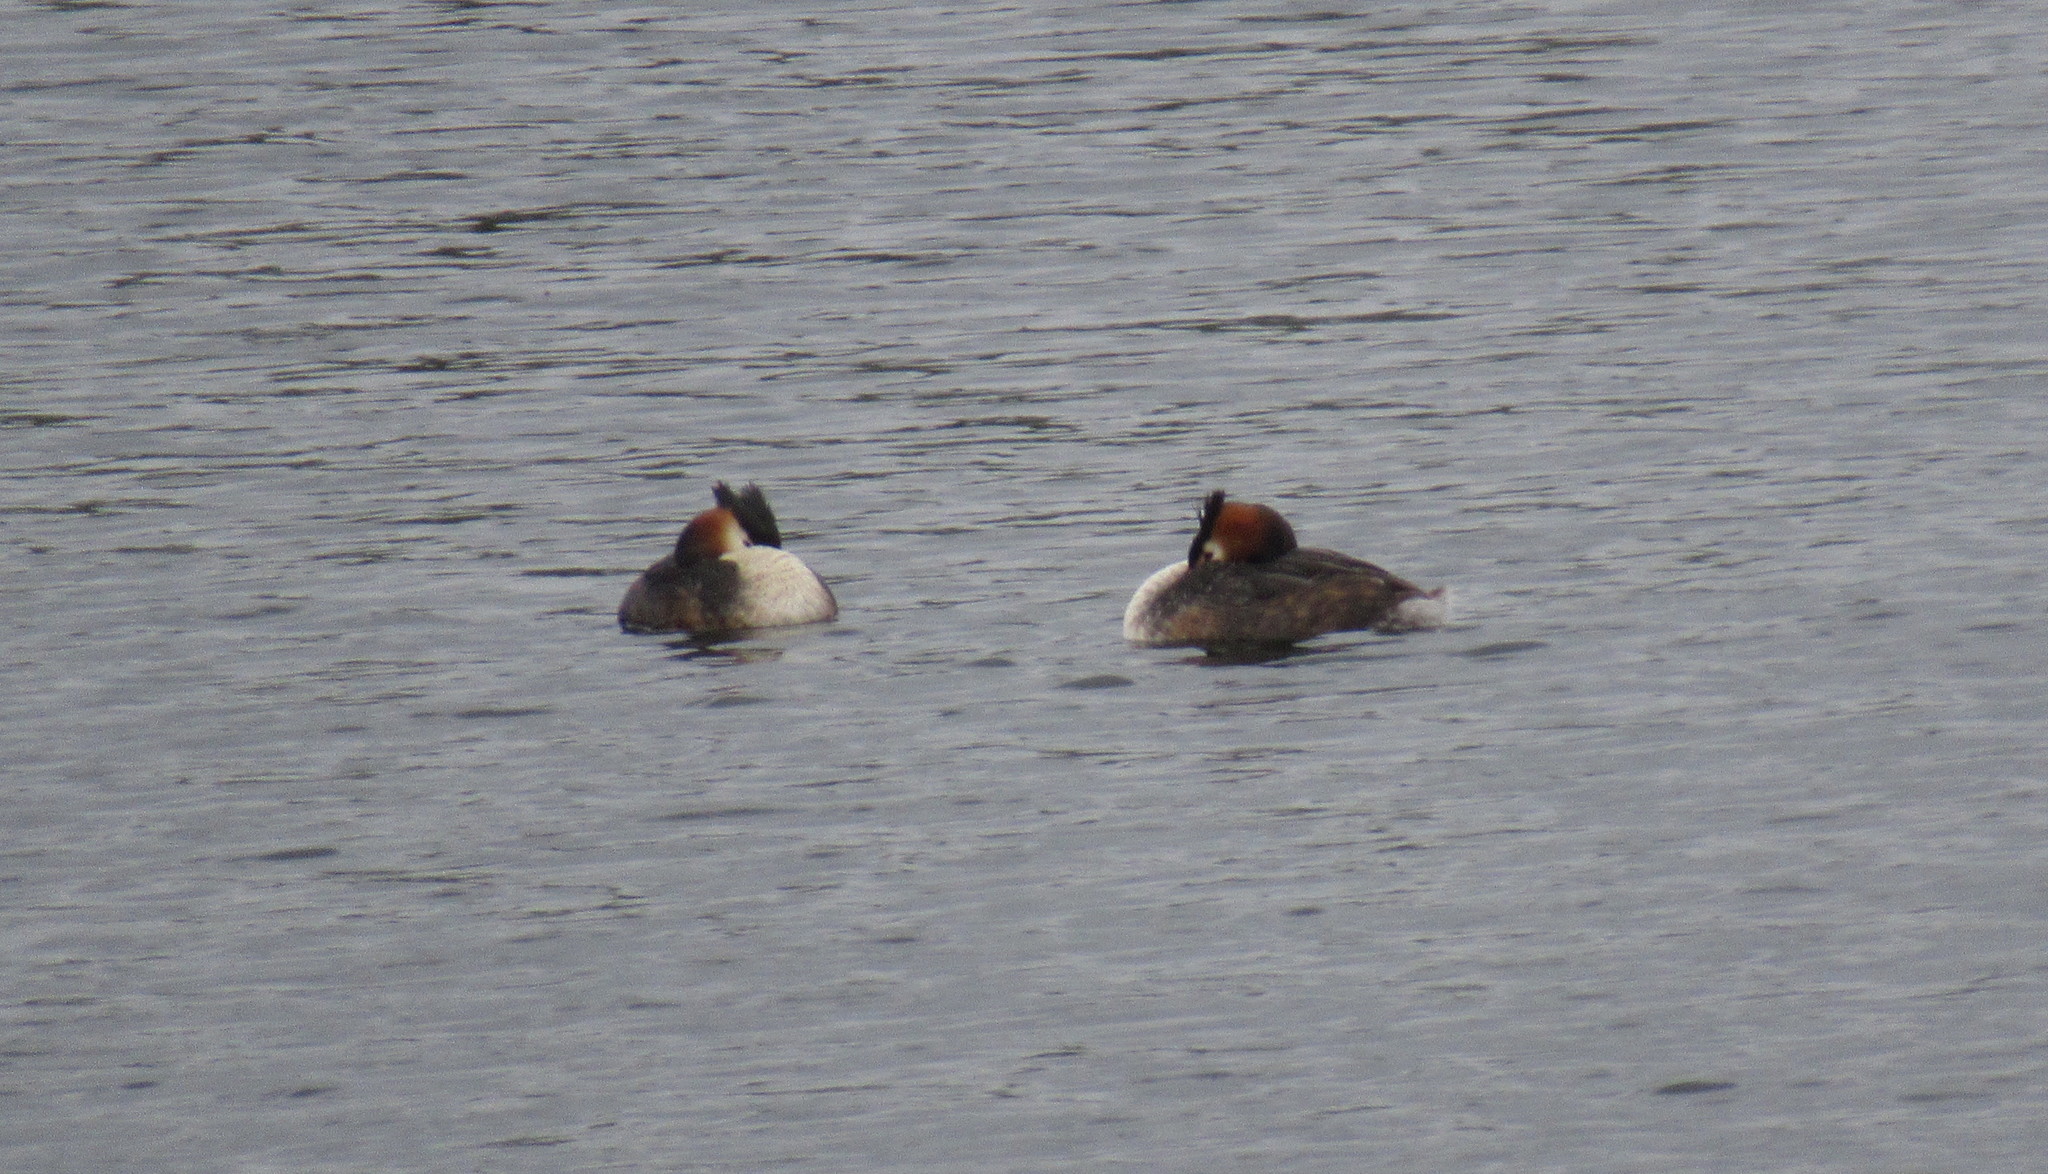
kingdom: Animalia
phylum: Chordata
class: Aves
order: Podicipediformes
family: Podicipedidae
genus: Podiceps
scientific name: Podiceps cristatus
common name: Great crested grebe
